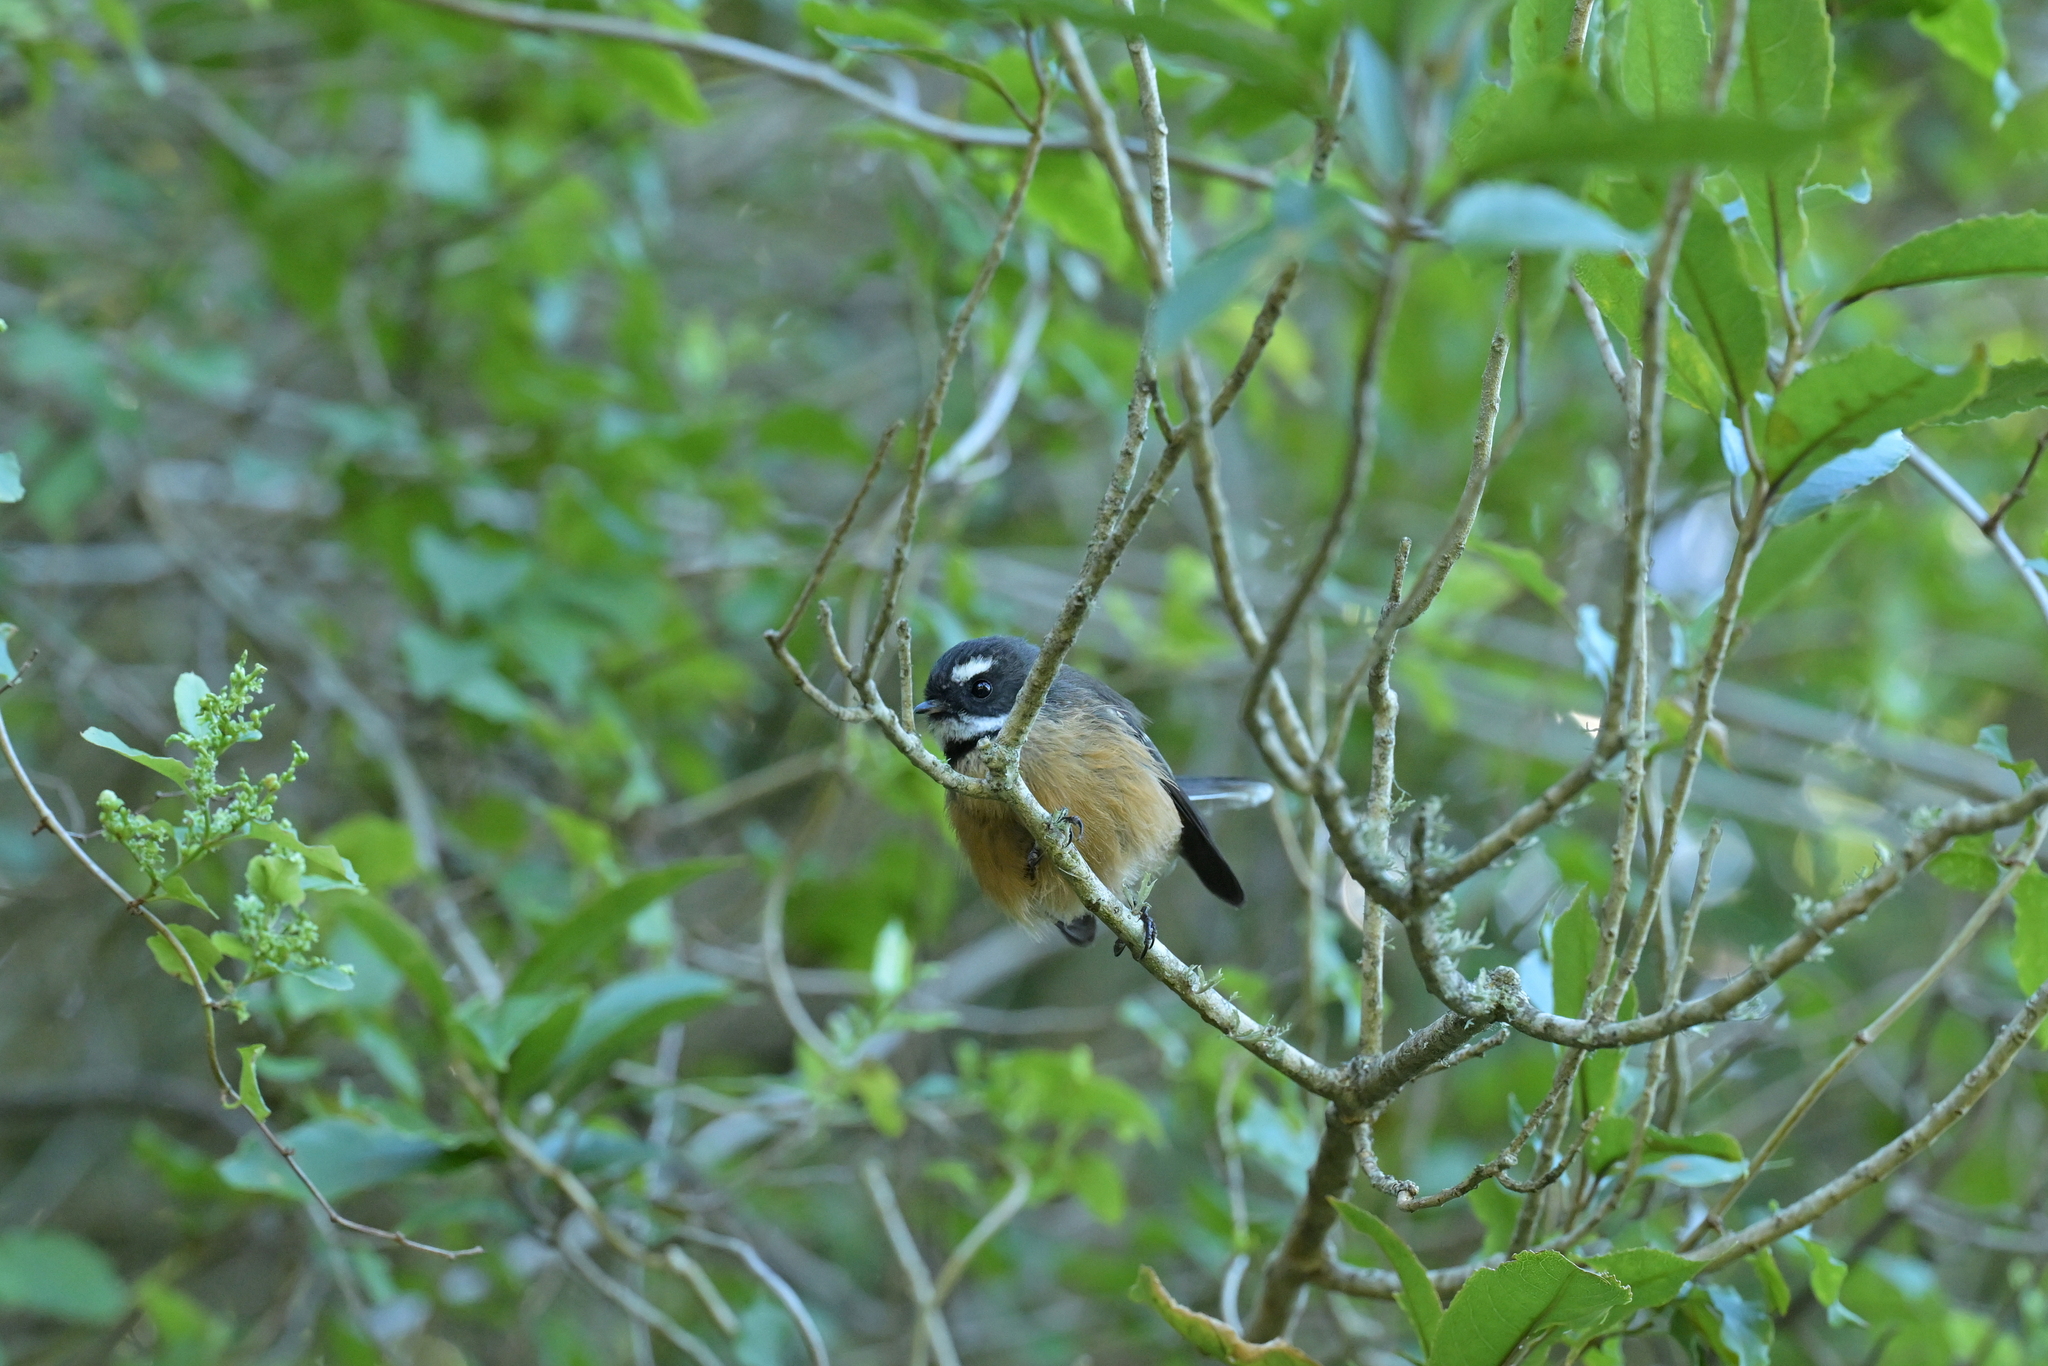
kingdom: Animalia
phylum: Chordata
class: Aves
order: Passeriformes
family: Rhipiduridae
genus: Rhipidura
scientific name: Rhipidura fuliginosa
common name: New zealand fantail
